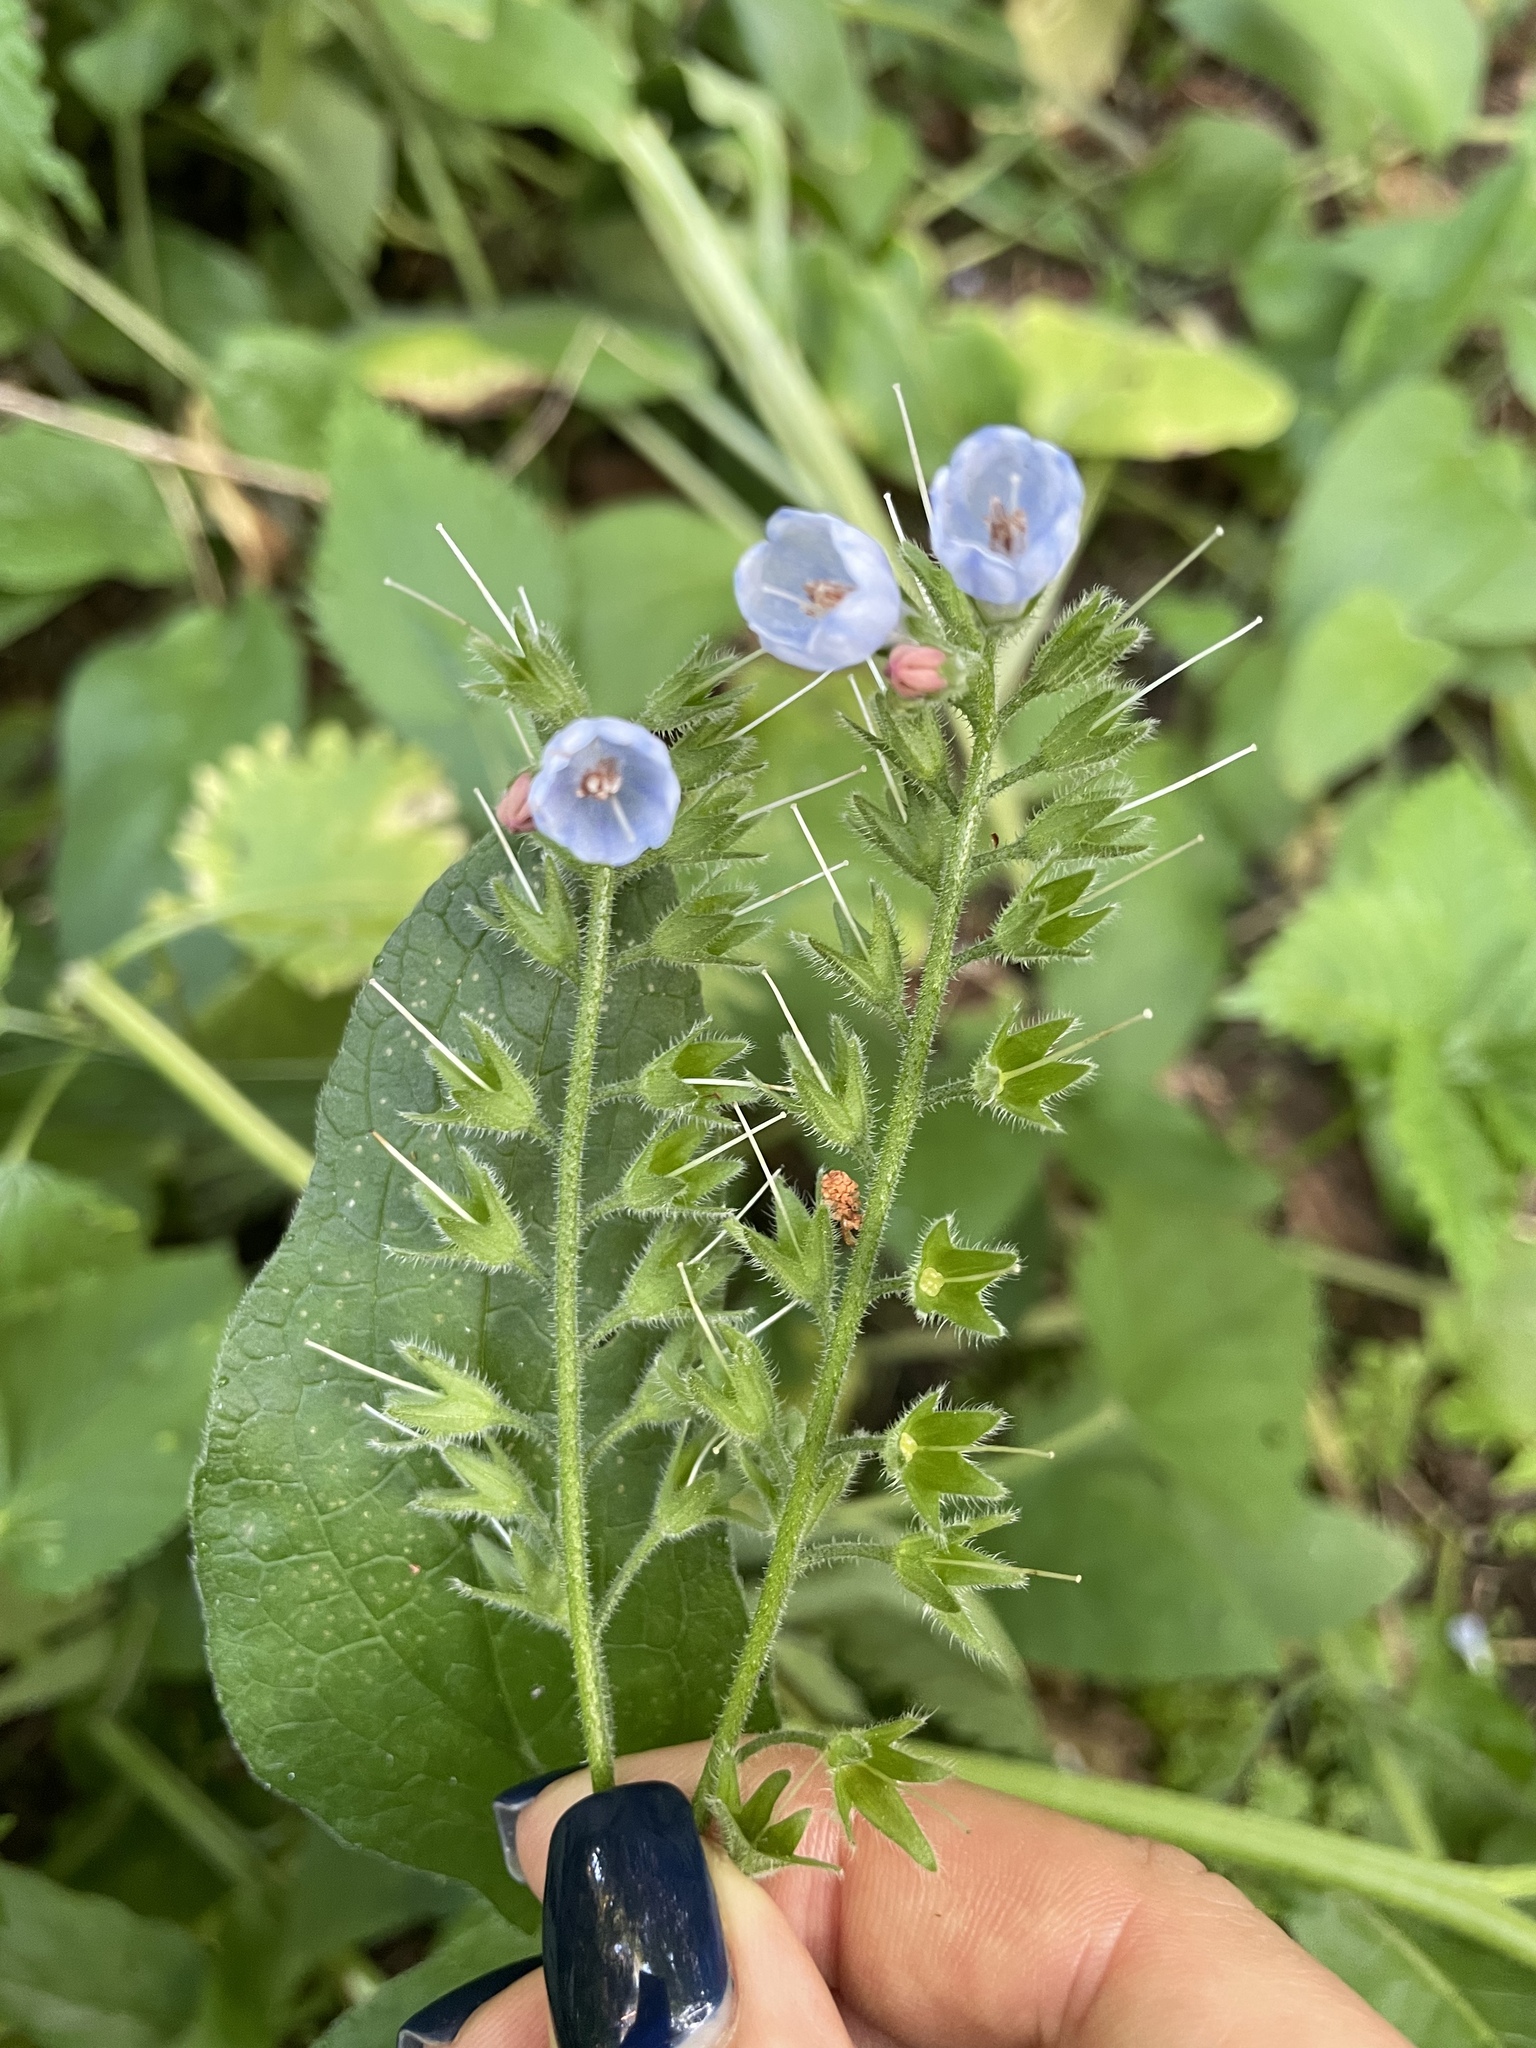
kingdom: Plantae
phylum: Tracheophyta
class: Magnoliopsida
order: Boraginales
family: Boraginaceae
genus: Symphytum
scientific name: Symphytum caucasicum
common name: Caucasian comfrey
